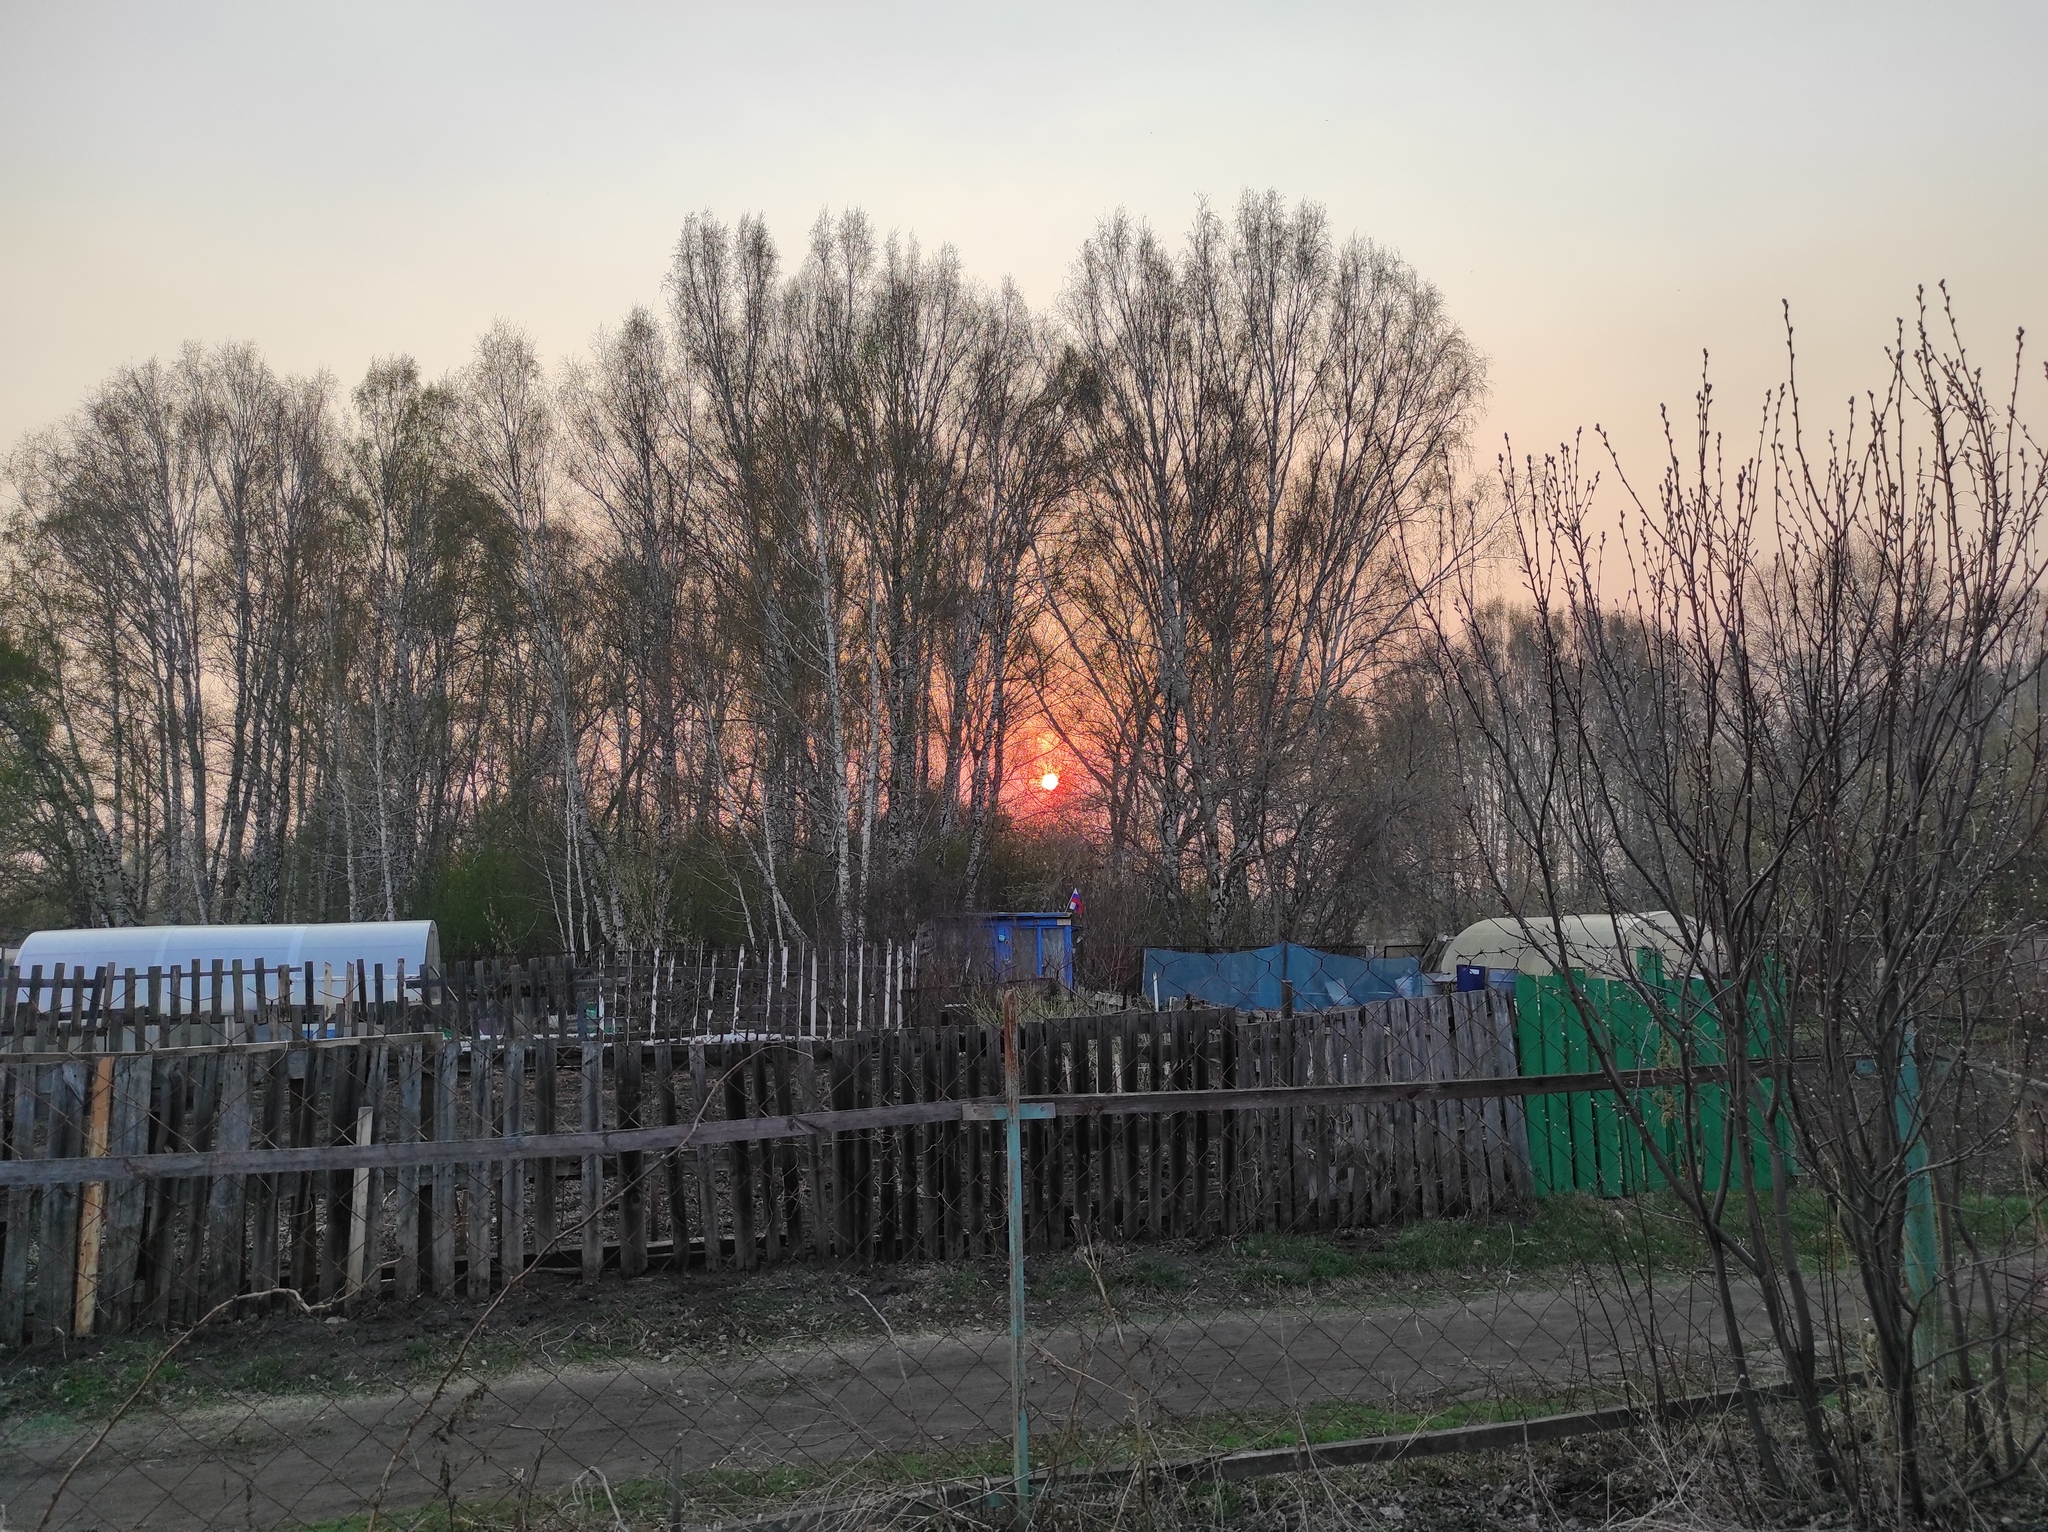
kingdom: Plantae
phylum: Tracheophyta
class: Magnoliopsida
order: Fagales
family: Betulaceae
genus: Betula
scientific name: Betula pendula
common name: Silver birch
